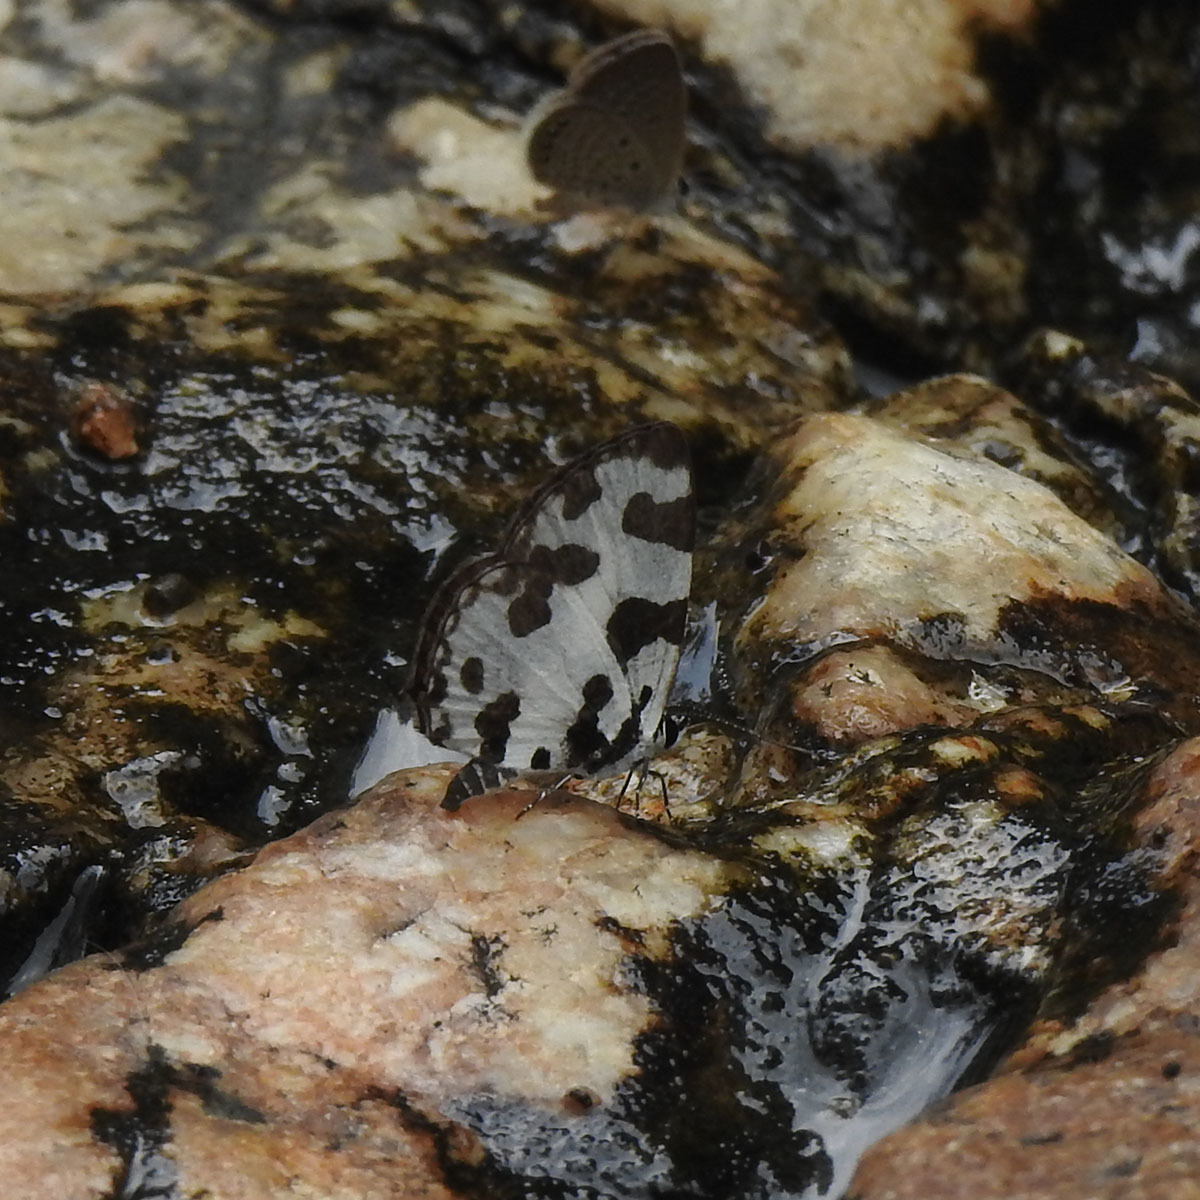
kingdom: Animalia
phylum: Arthropoda
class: Insecta
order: Lepidoptera
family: Lycaenidae
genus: Caleta
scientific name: Caleta decidia
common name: Angled pierrot
